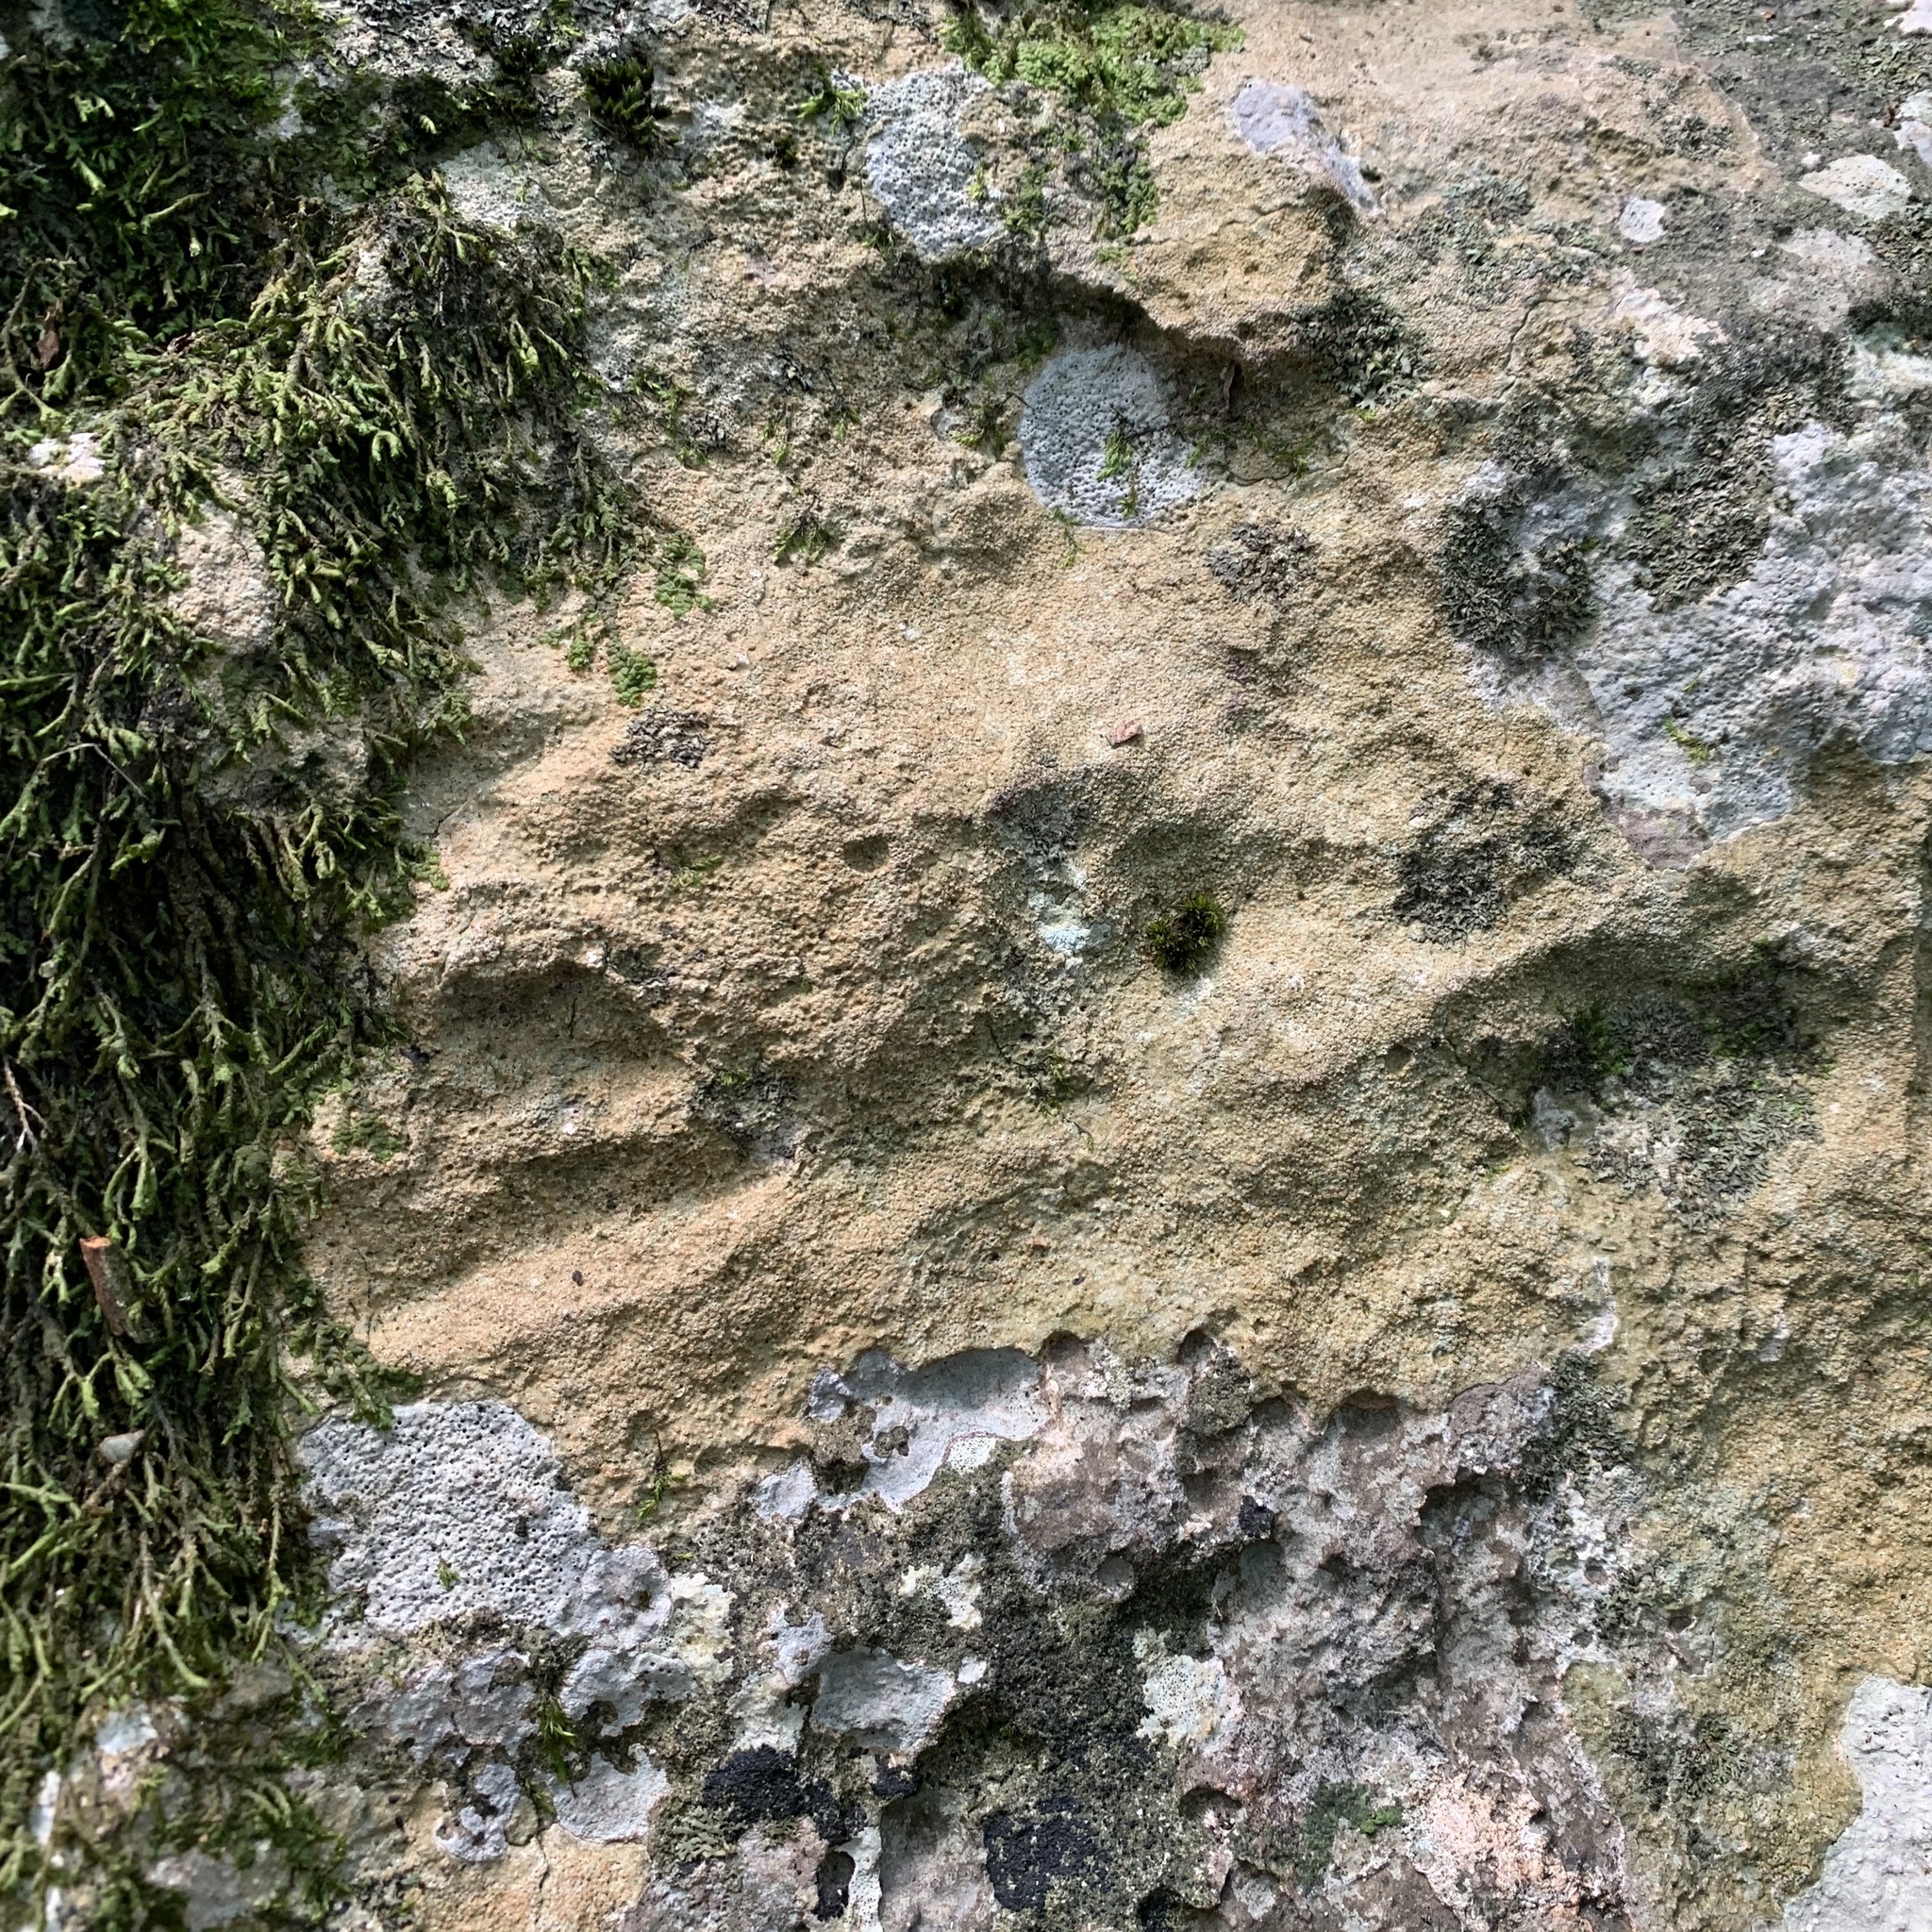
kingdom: Fungi
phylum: Ascomycota
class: Lecanoromycetes
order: Ostropales
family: Stictidaceae
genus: Petractis
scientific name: Petractis farlowii
